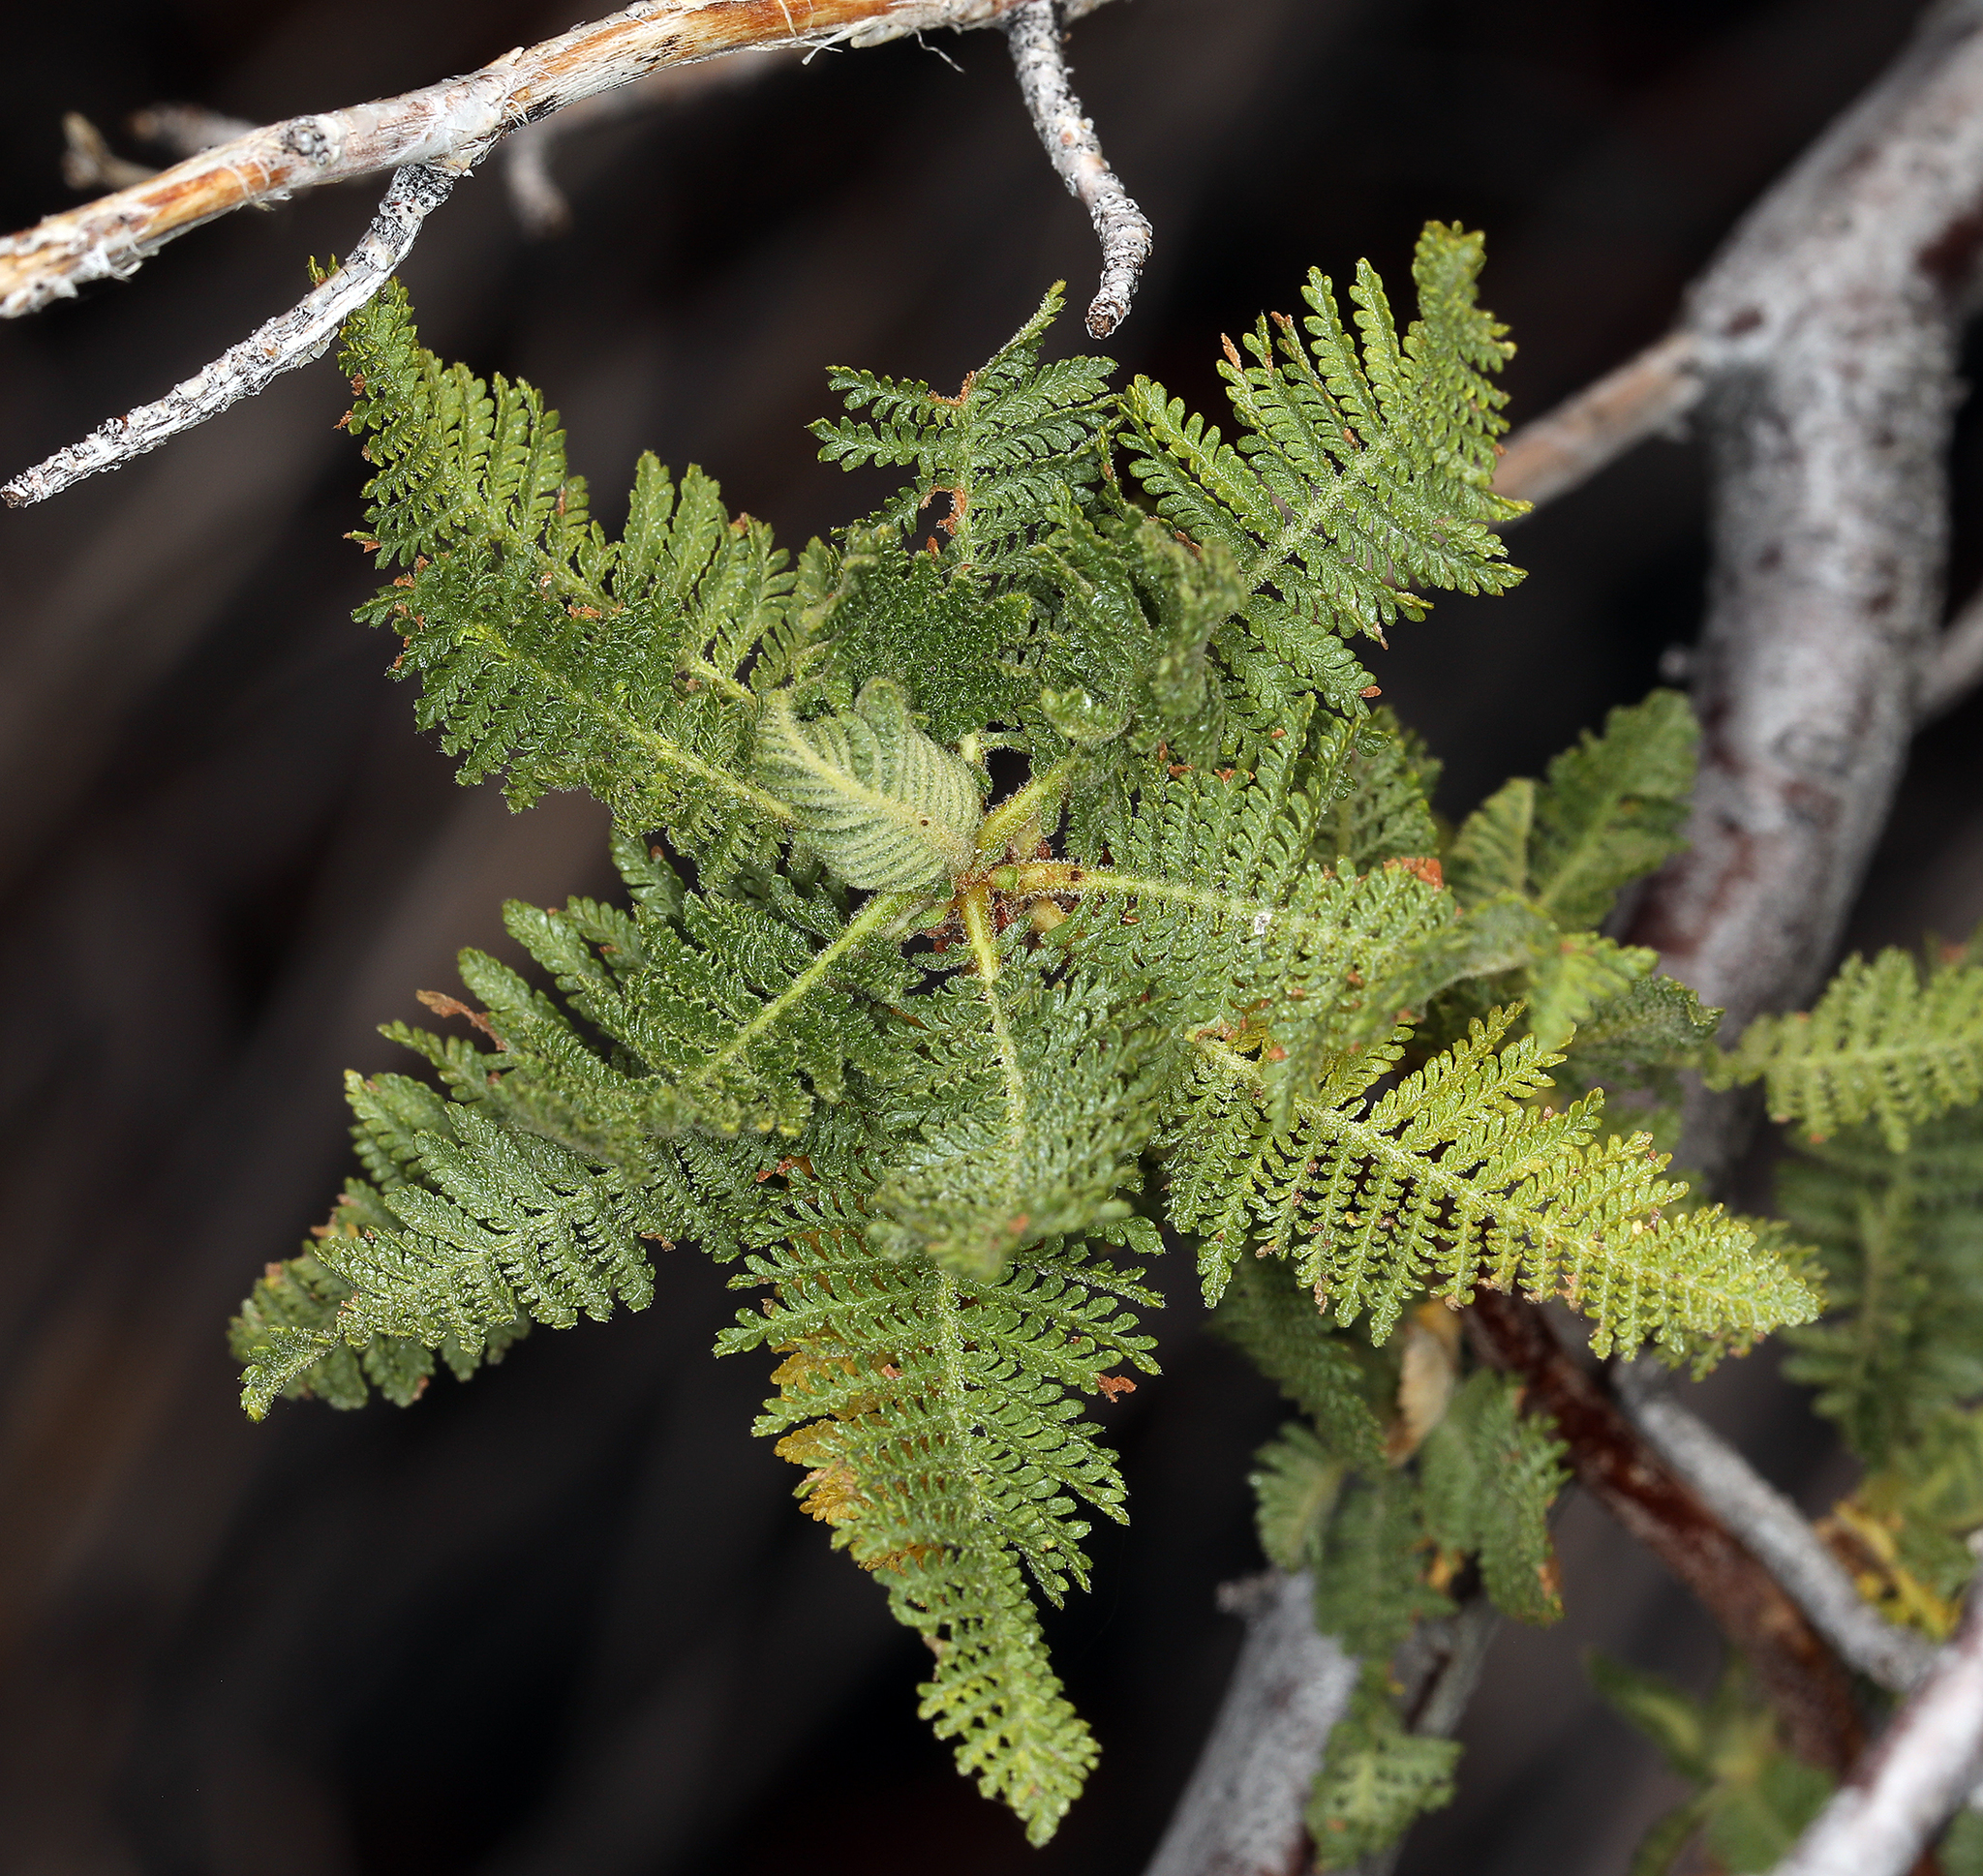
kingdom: Plantae
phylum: Tracheophyta
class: Magnoliopsida
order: Rosales
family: Rosaceae
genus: Chamaebatiaria
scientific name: Chamaebatiaria millefolium
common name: Fernbush
